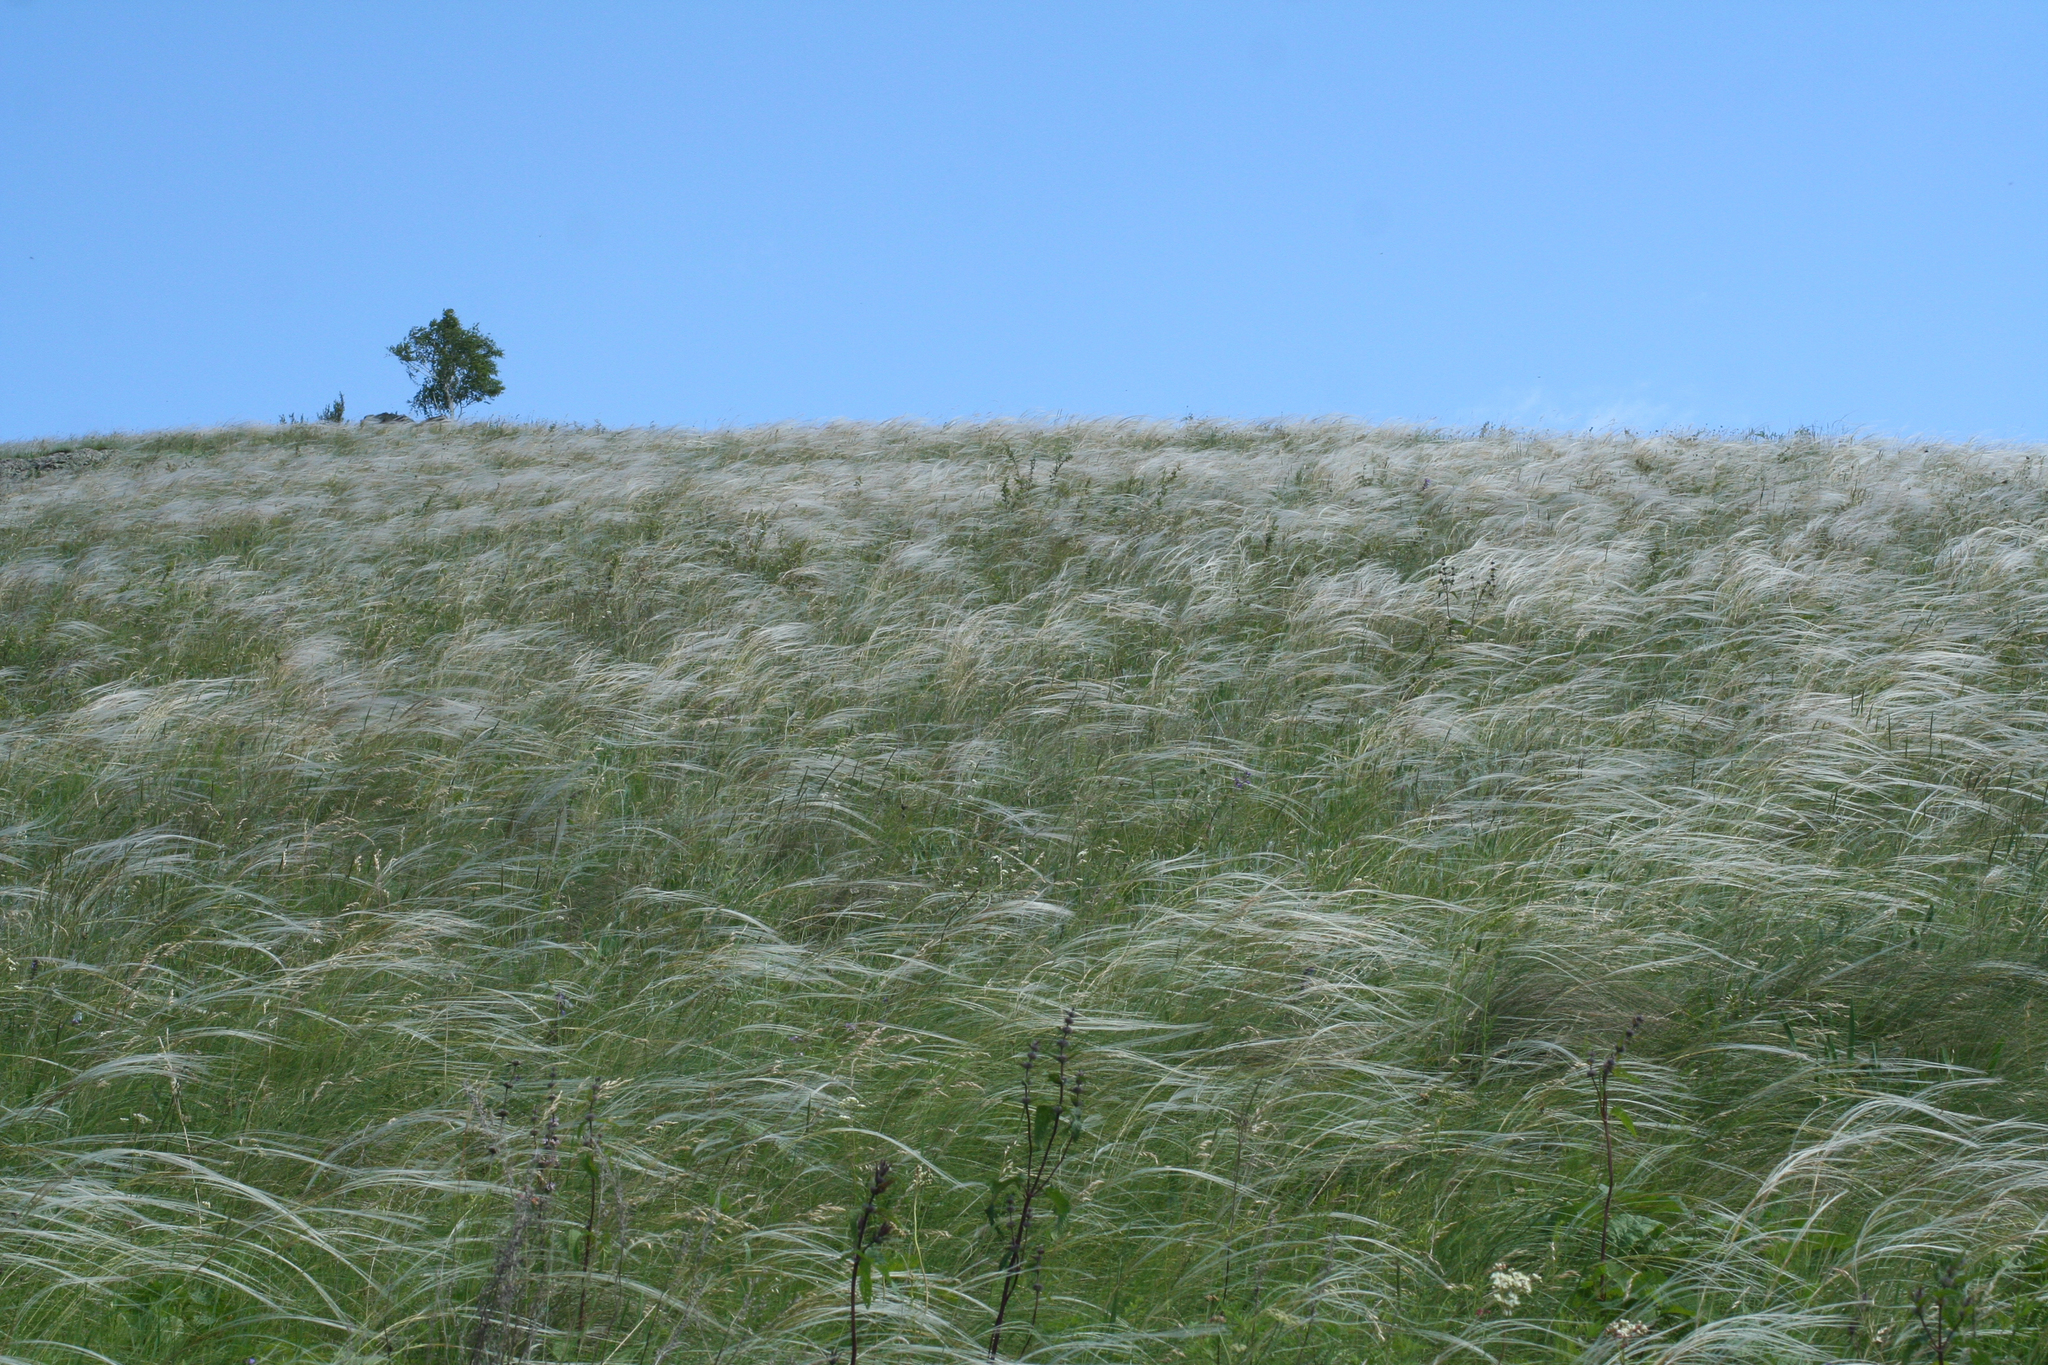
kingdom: Plantae
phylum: Tracheophyta
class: Liliopsida
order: Poales
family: Poaceae
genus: Stipa
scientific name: Stipa pennata
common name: European feather grass
